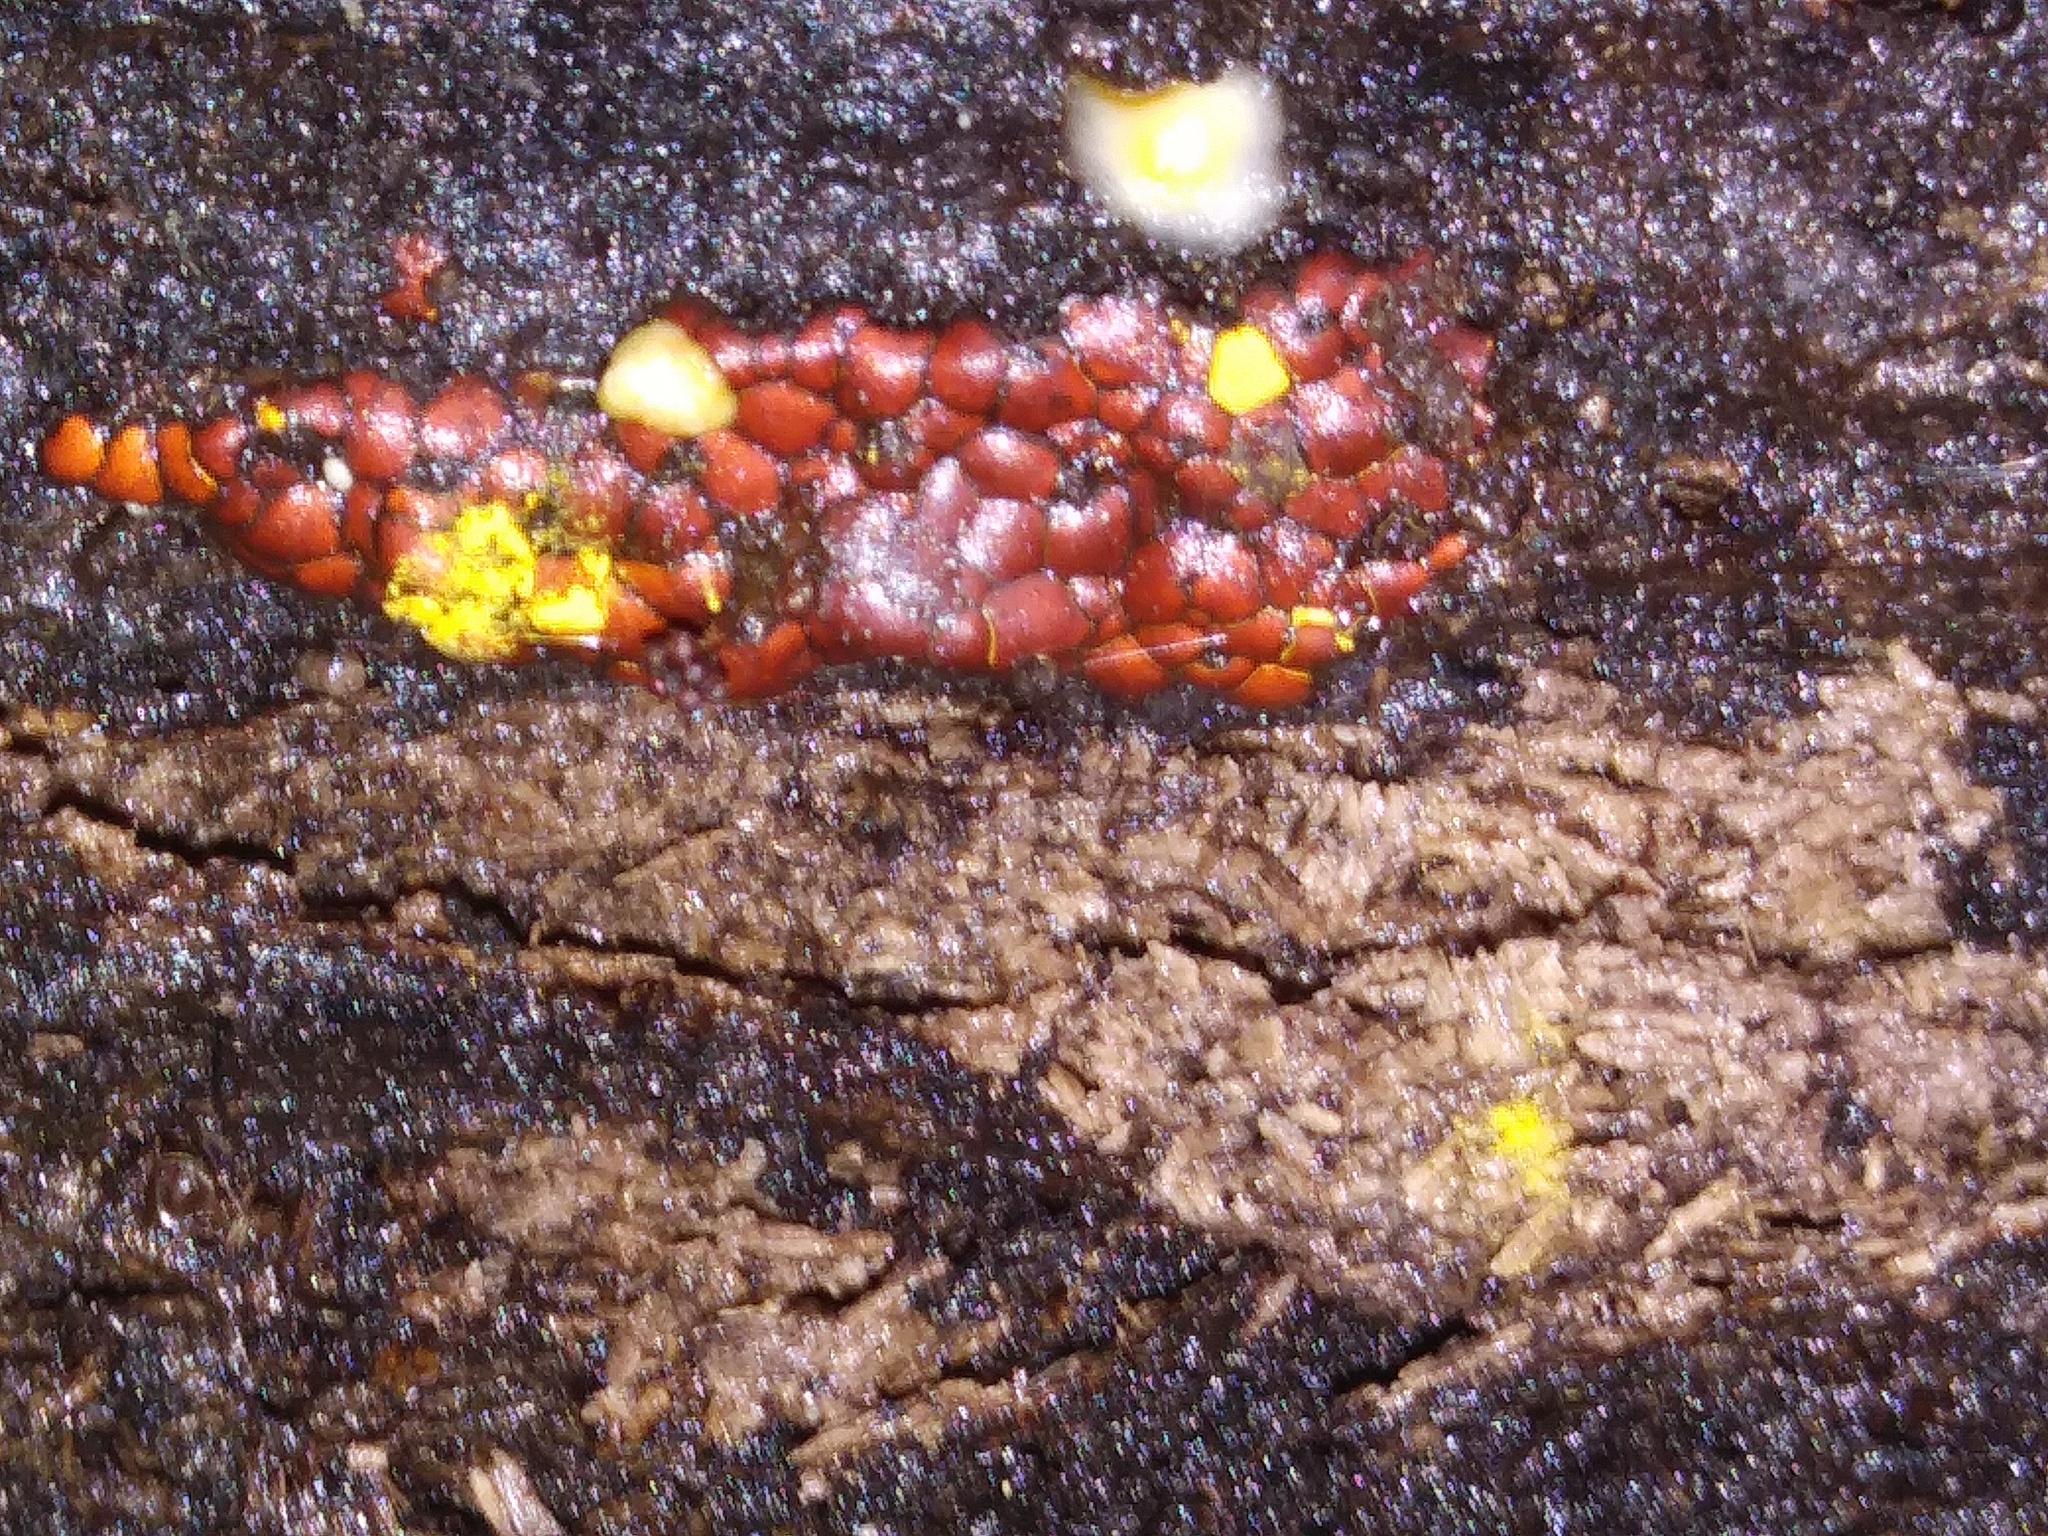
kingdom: Protozoa
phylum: Mycetozoa
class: Myxomycetes
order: Trichiales
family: Trichiaceae
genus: Perichaena
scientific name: Perichaena depressa
